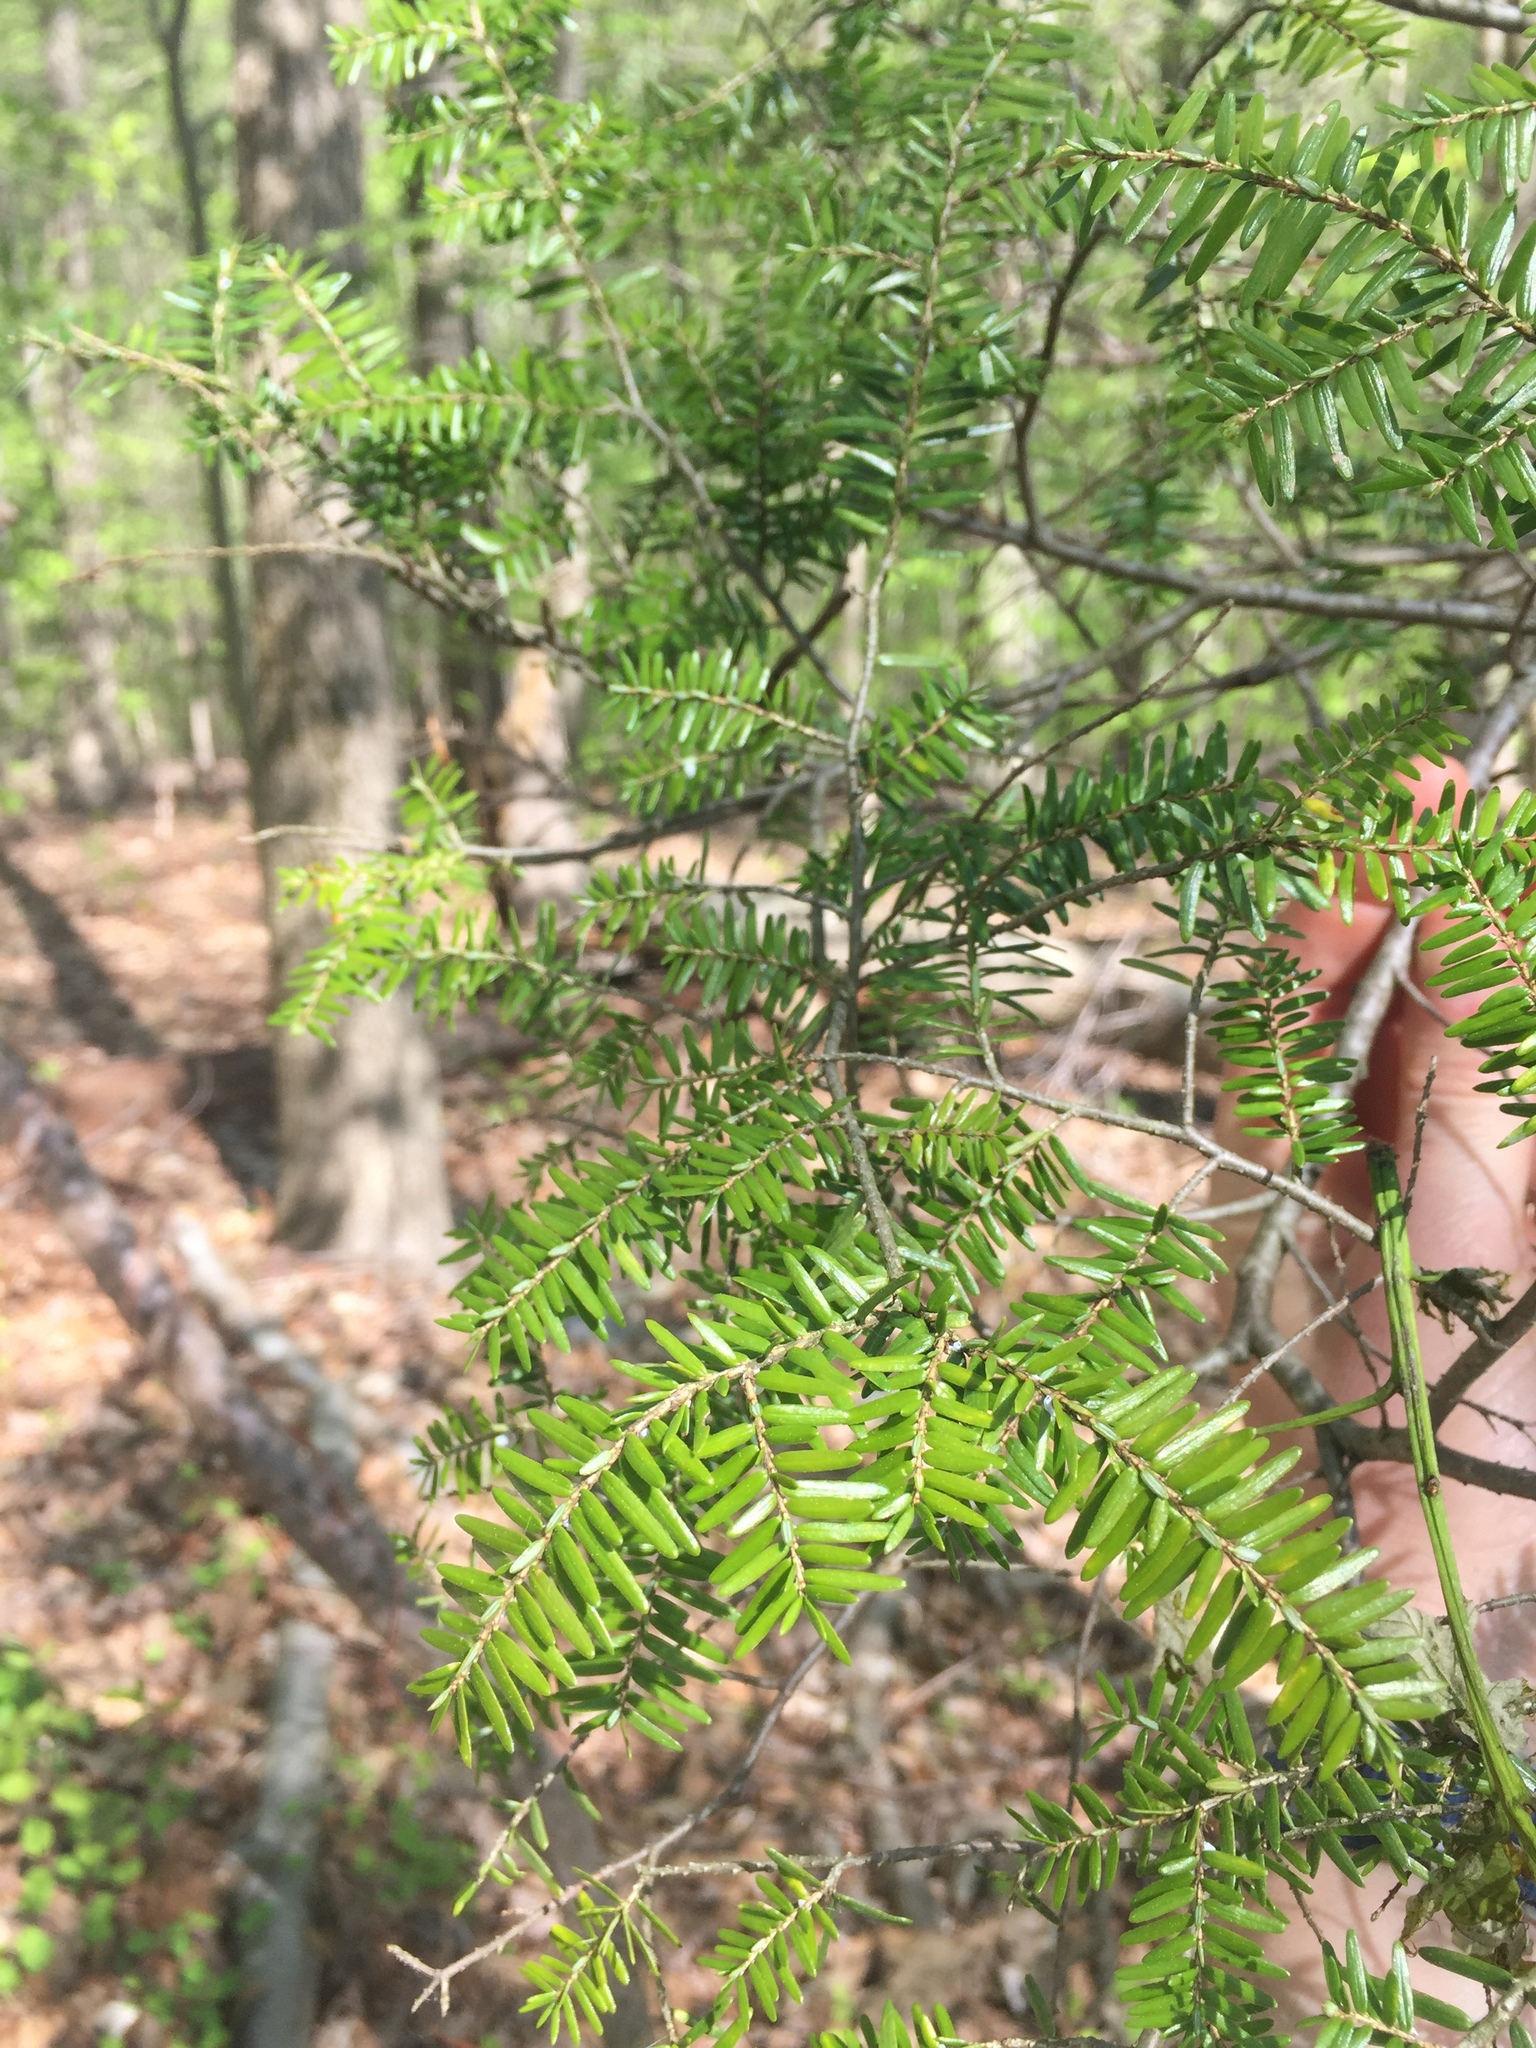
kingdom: Plantae
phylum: Tracheophyta
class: Pinopsida
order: Pinales
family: Pinaceae
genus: Tsuga
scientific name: Tsuga canadensis
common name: Eastern hemlock
